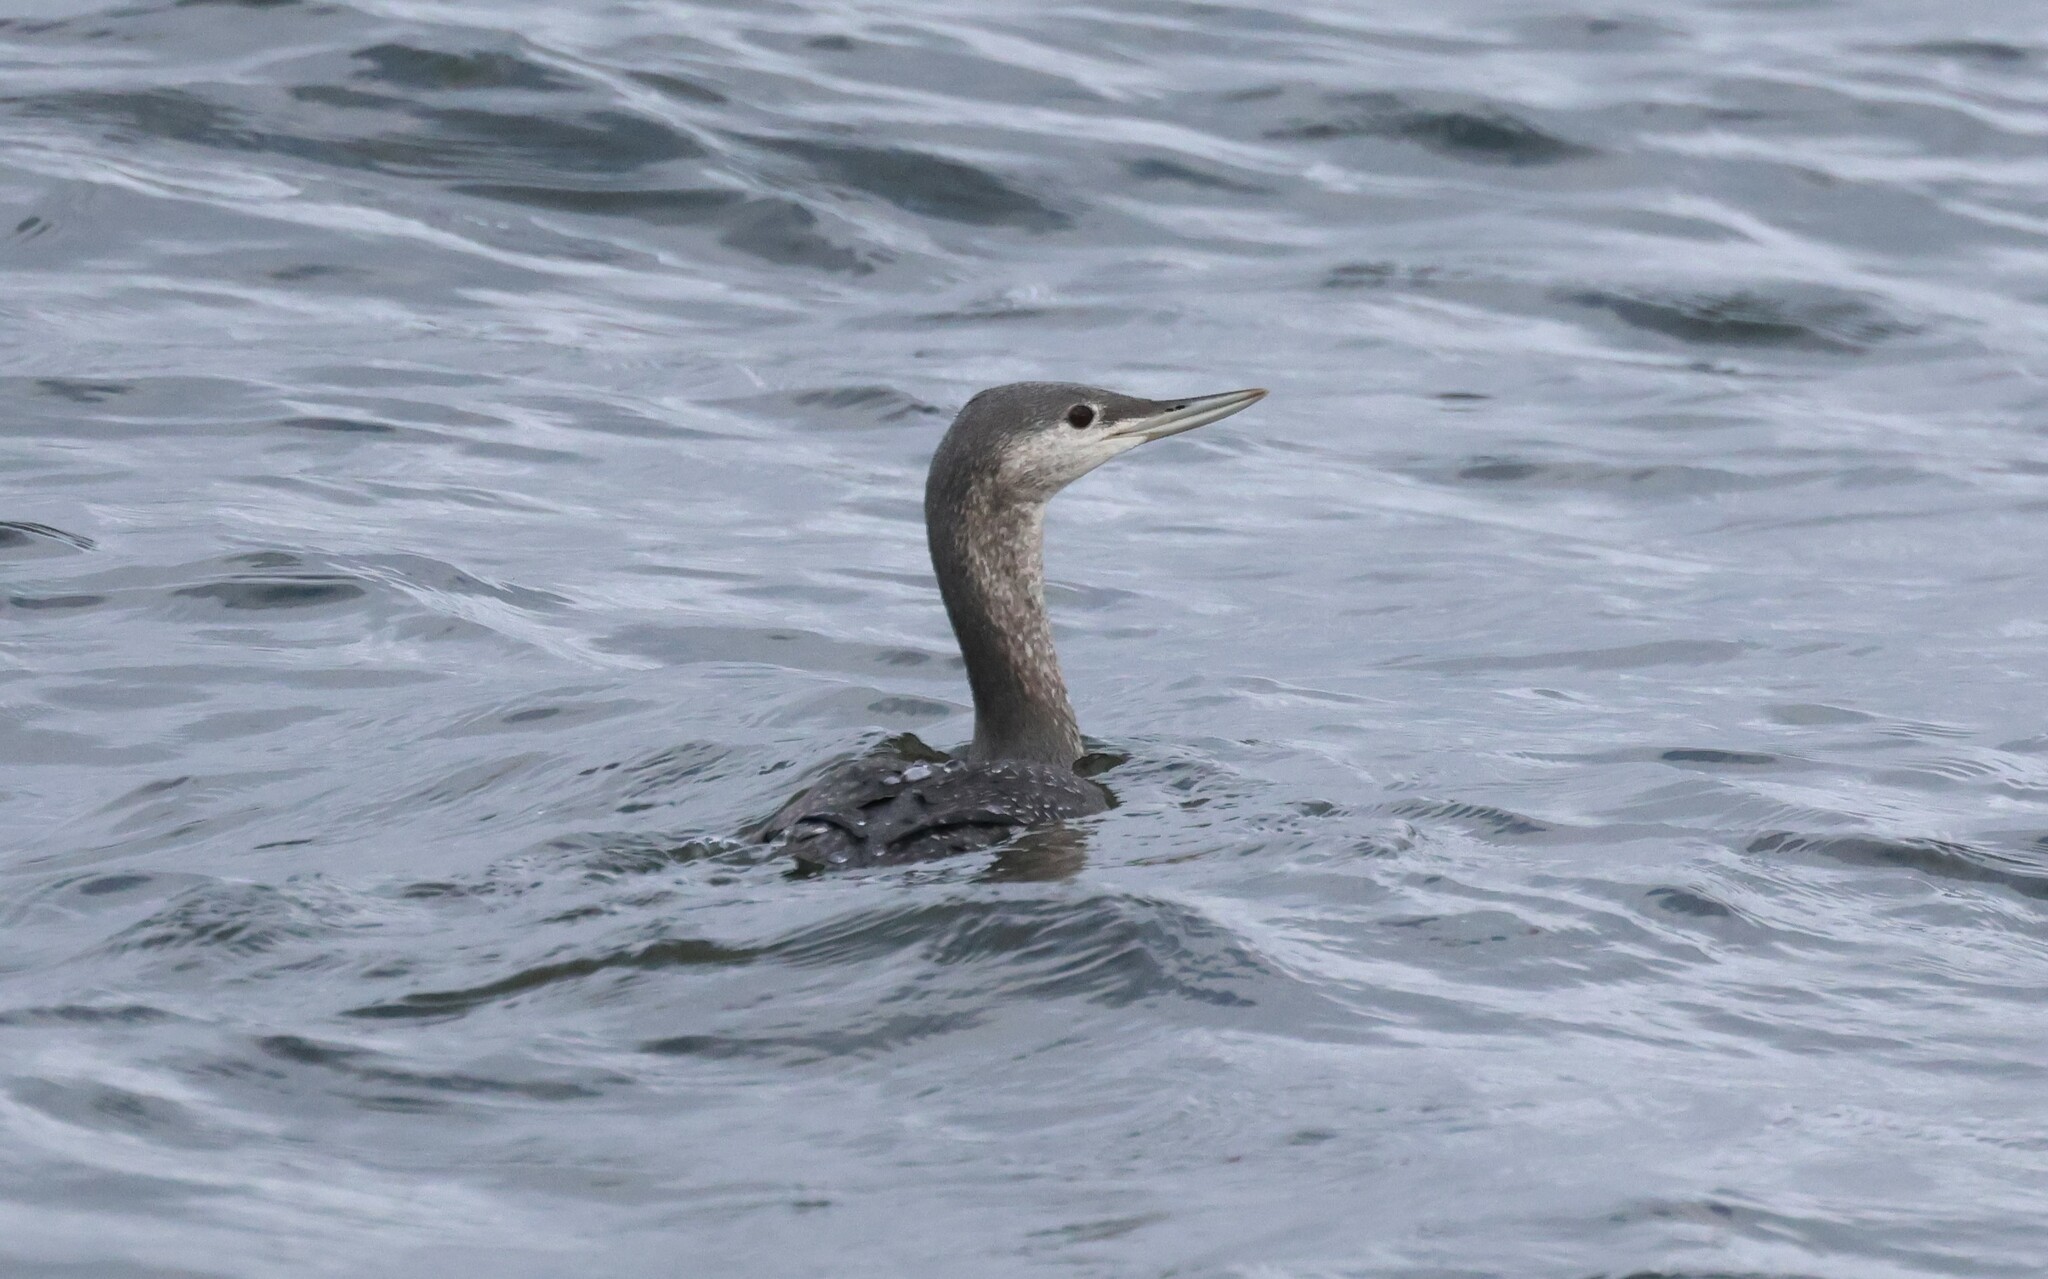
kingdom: Animalia
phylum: Chordata
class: Aves
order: Gaviiformes
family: Gaviidae
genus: Gavia
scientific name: Gavia stellata
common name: Red-throated loon
